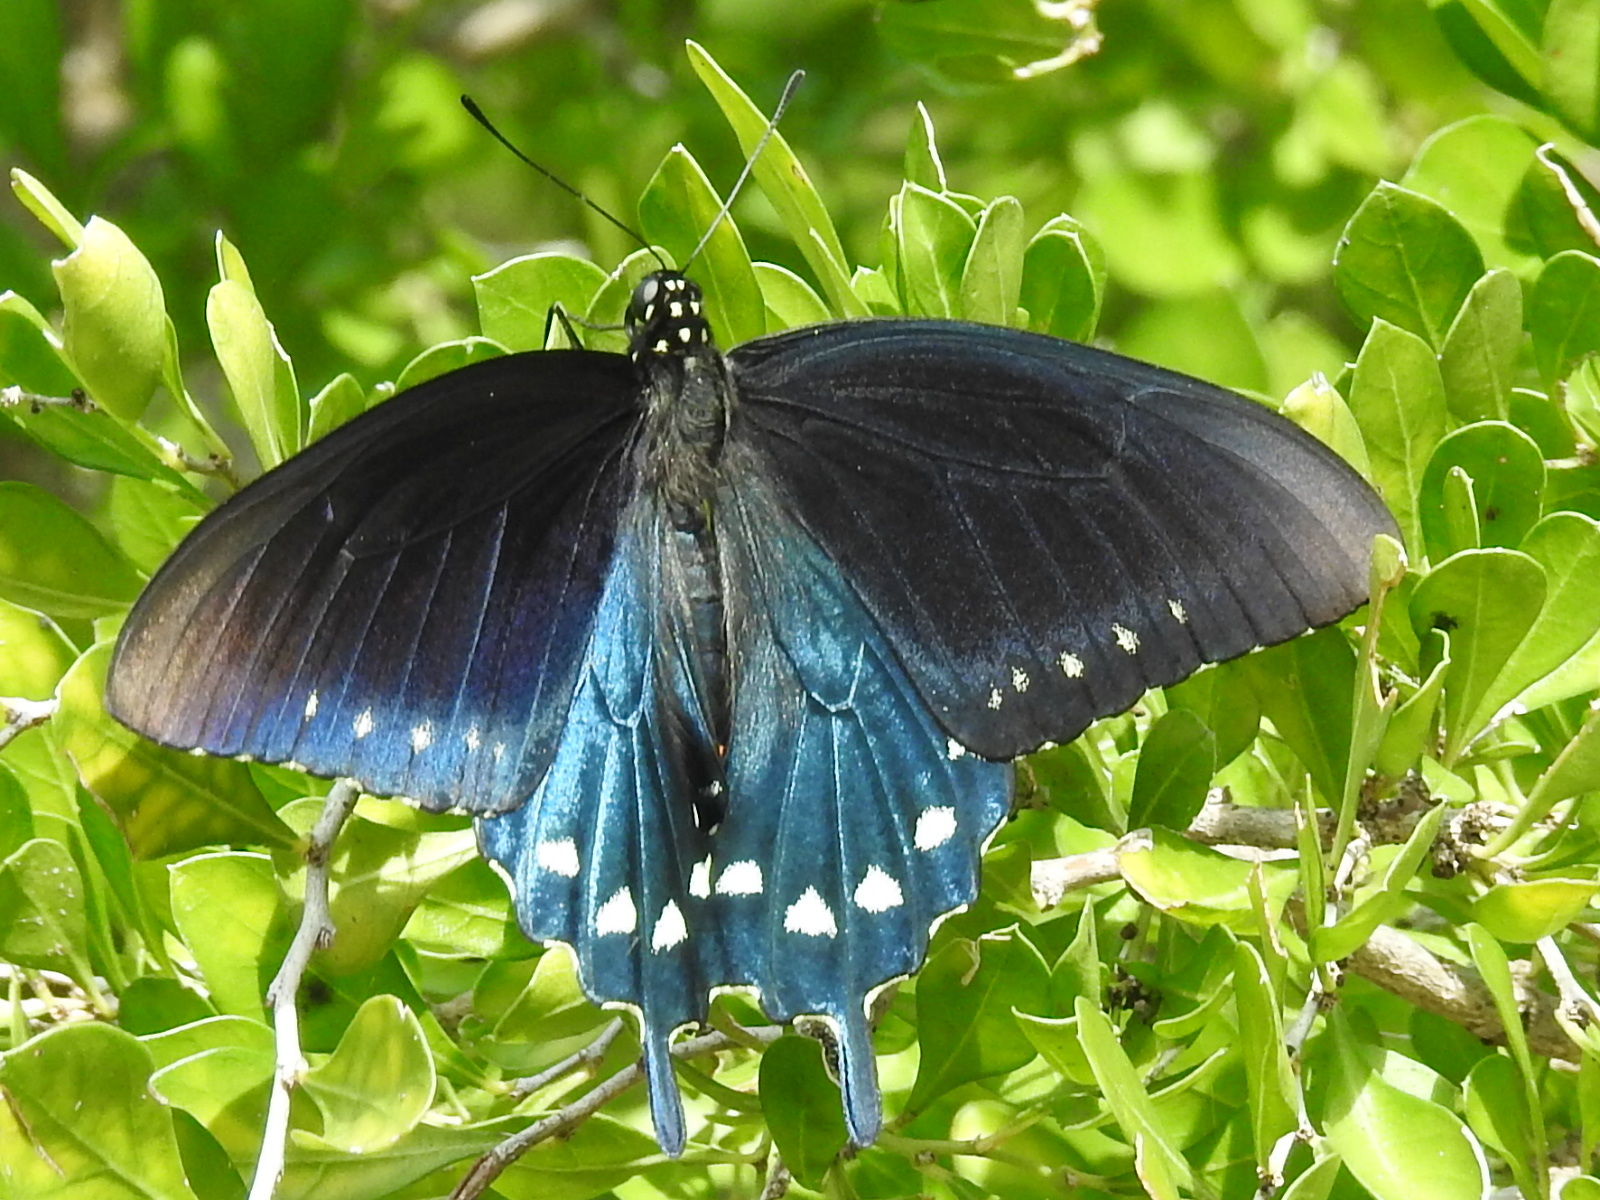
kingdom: Animalia
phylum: Arthropoda
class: Insecta
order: Lepidoptera
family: Papilionidae
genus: Battus
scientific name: Battus philenor
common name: Pipevine swallowtail
